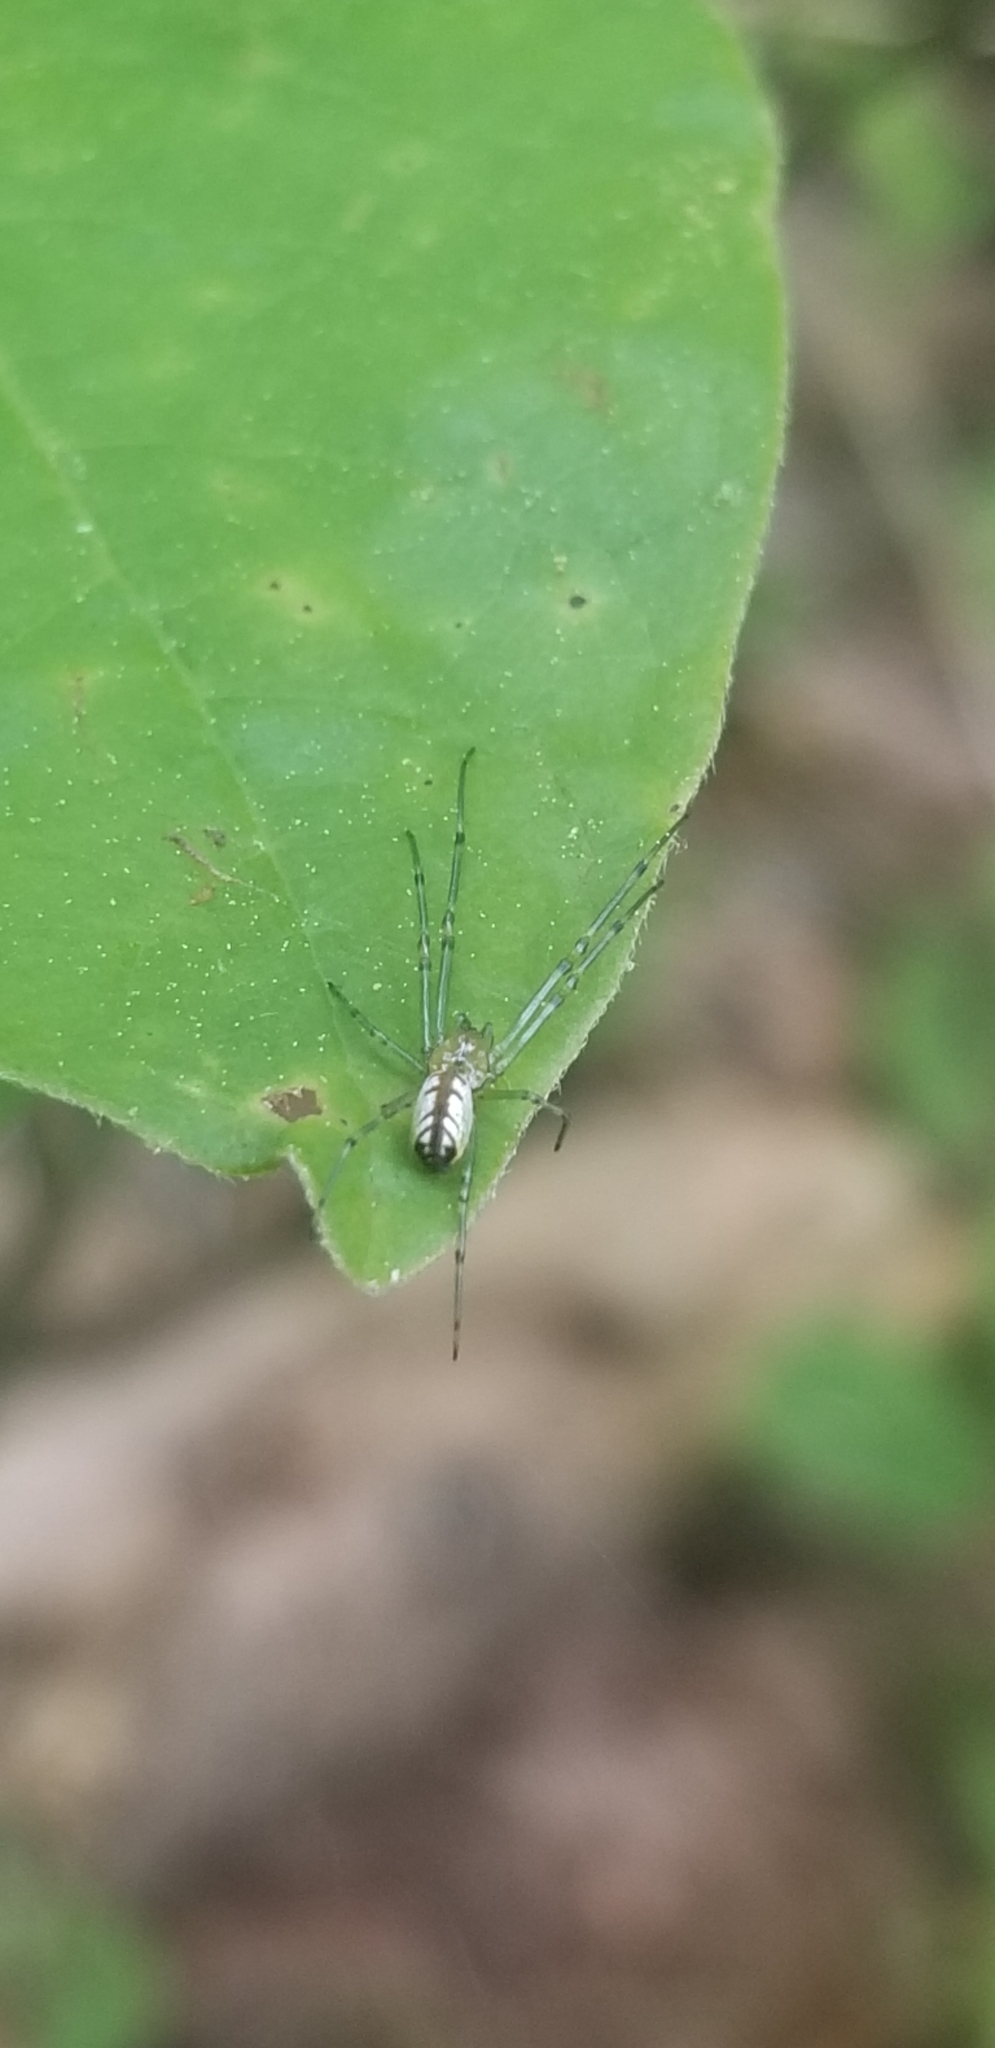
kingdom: Animalia
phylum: Arthropoda
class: Arachnida
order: Araneae
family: Tetragnathidae
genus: Leucauge
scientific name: Leucauge venusta
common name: Longjawed orb weavers
